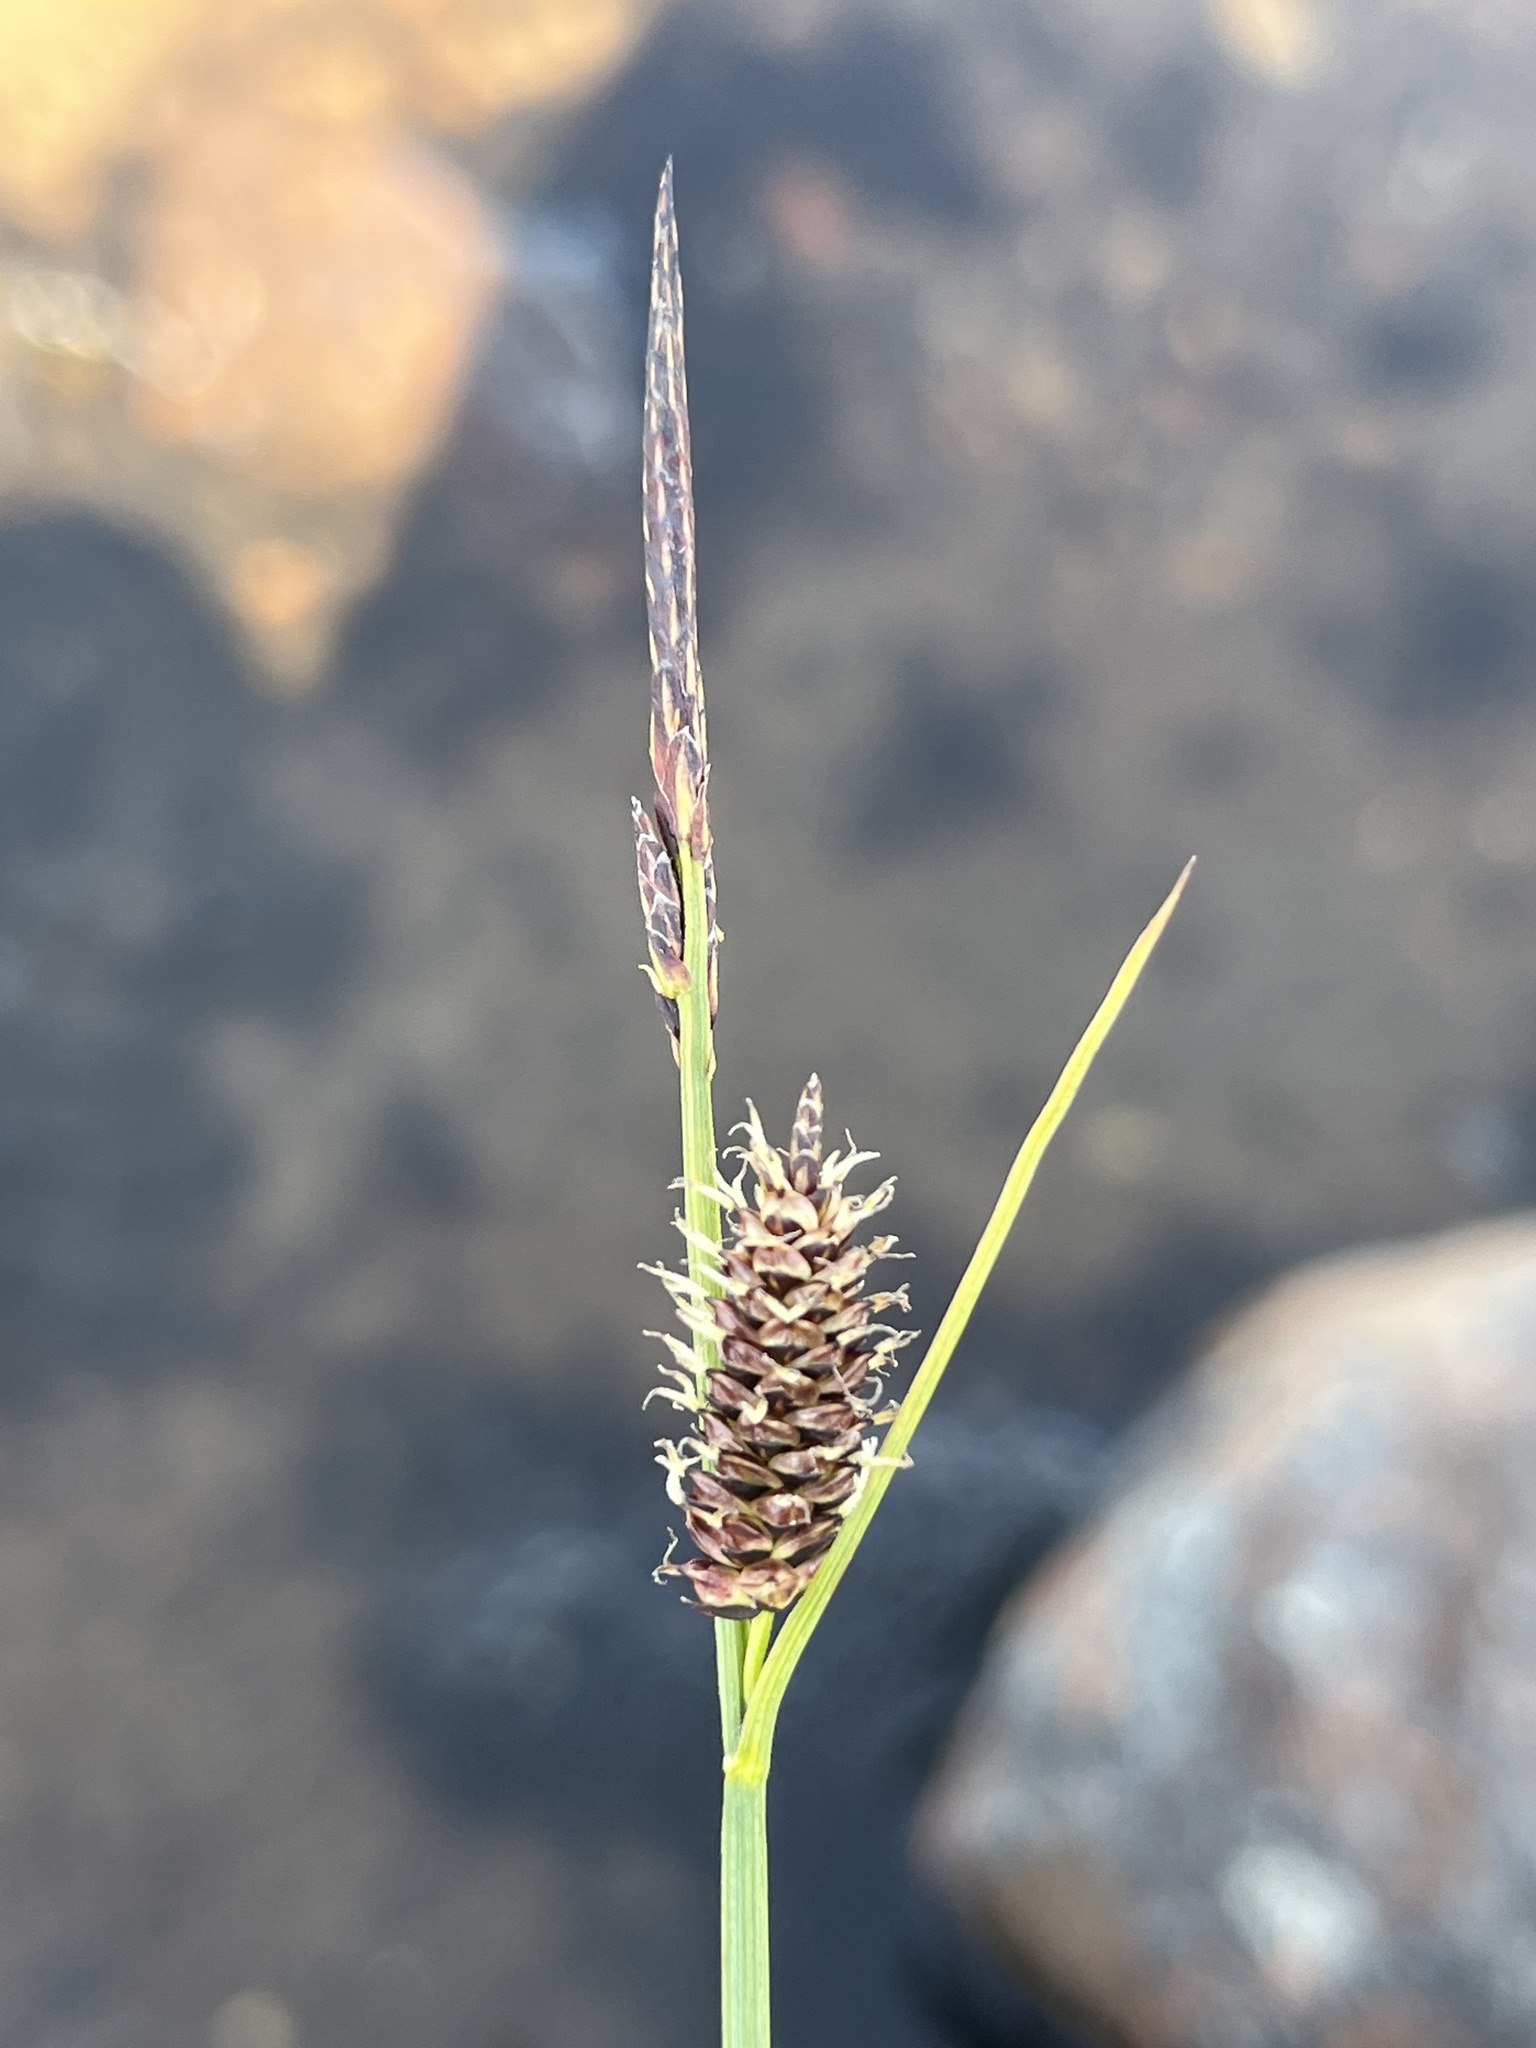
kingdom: Plantae
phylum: Tracheophyta
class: Liliopsida
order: Poales
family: Cyperaceae
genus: Carex
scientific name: Carex saxatilis
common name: Russet sedge
